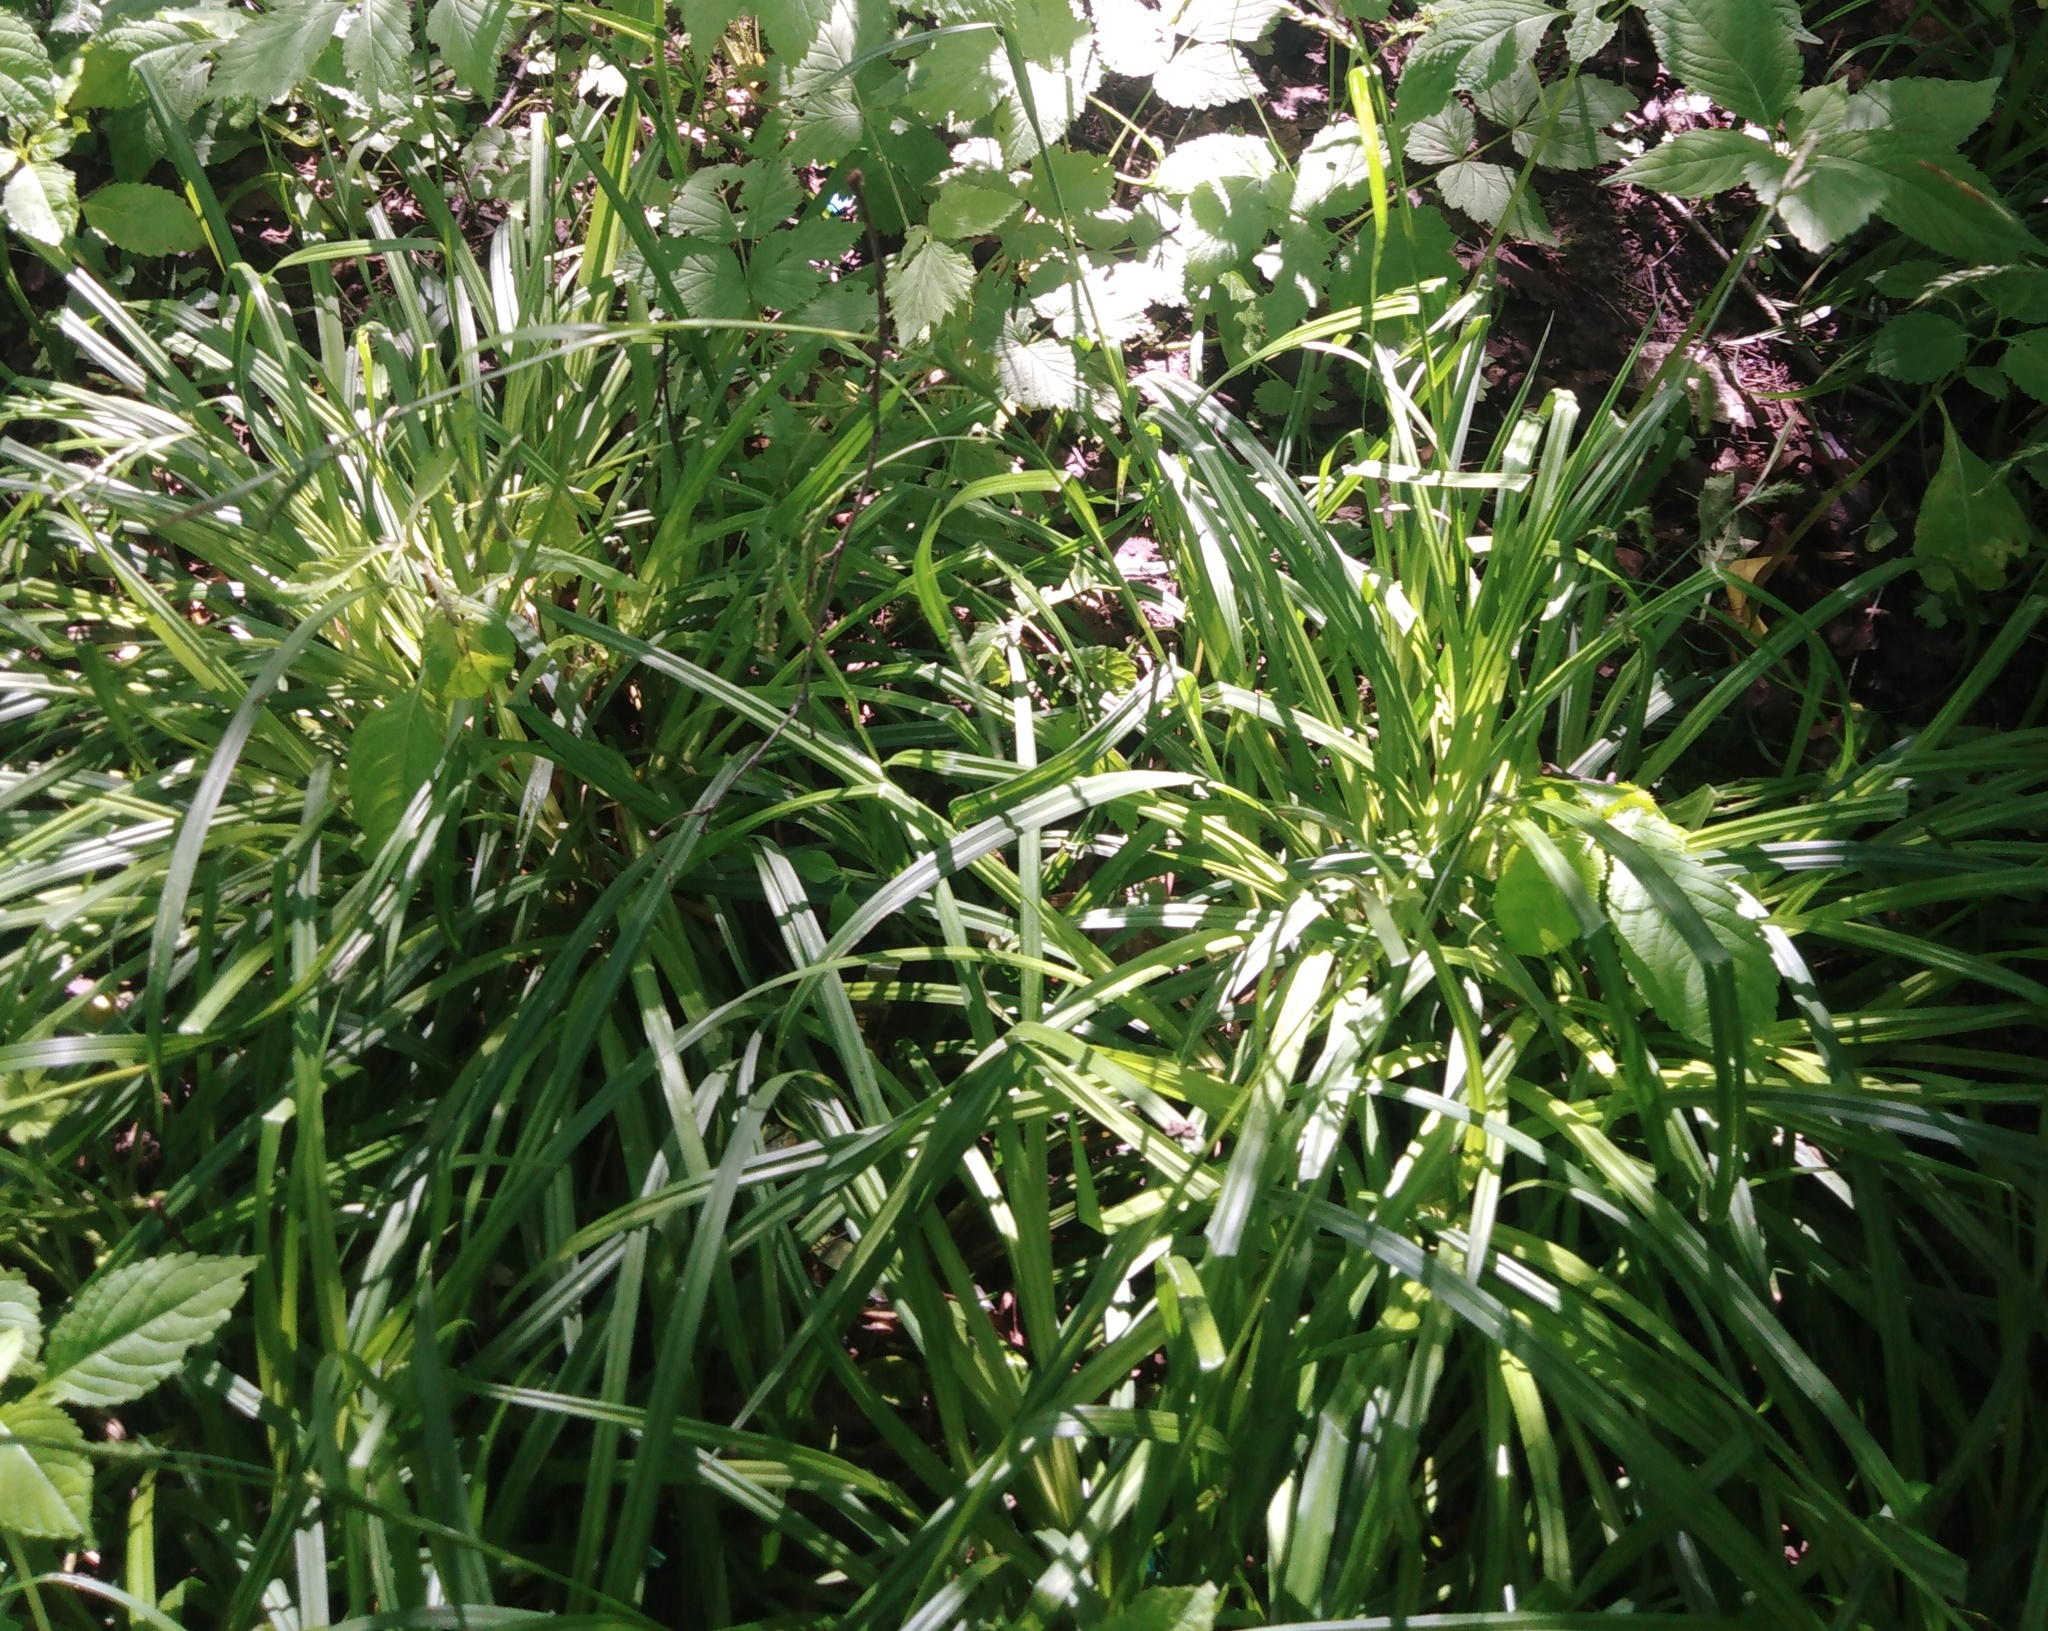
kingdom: Plantae
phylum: Tracheophyta
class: Liliopsida
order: Poales
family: Cyperaceae
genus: Carex
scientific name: Carex pilosa
